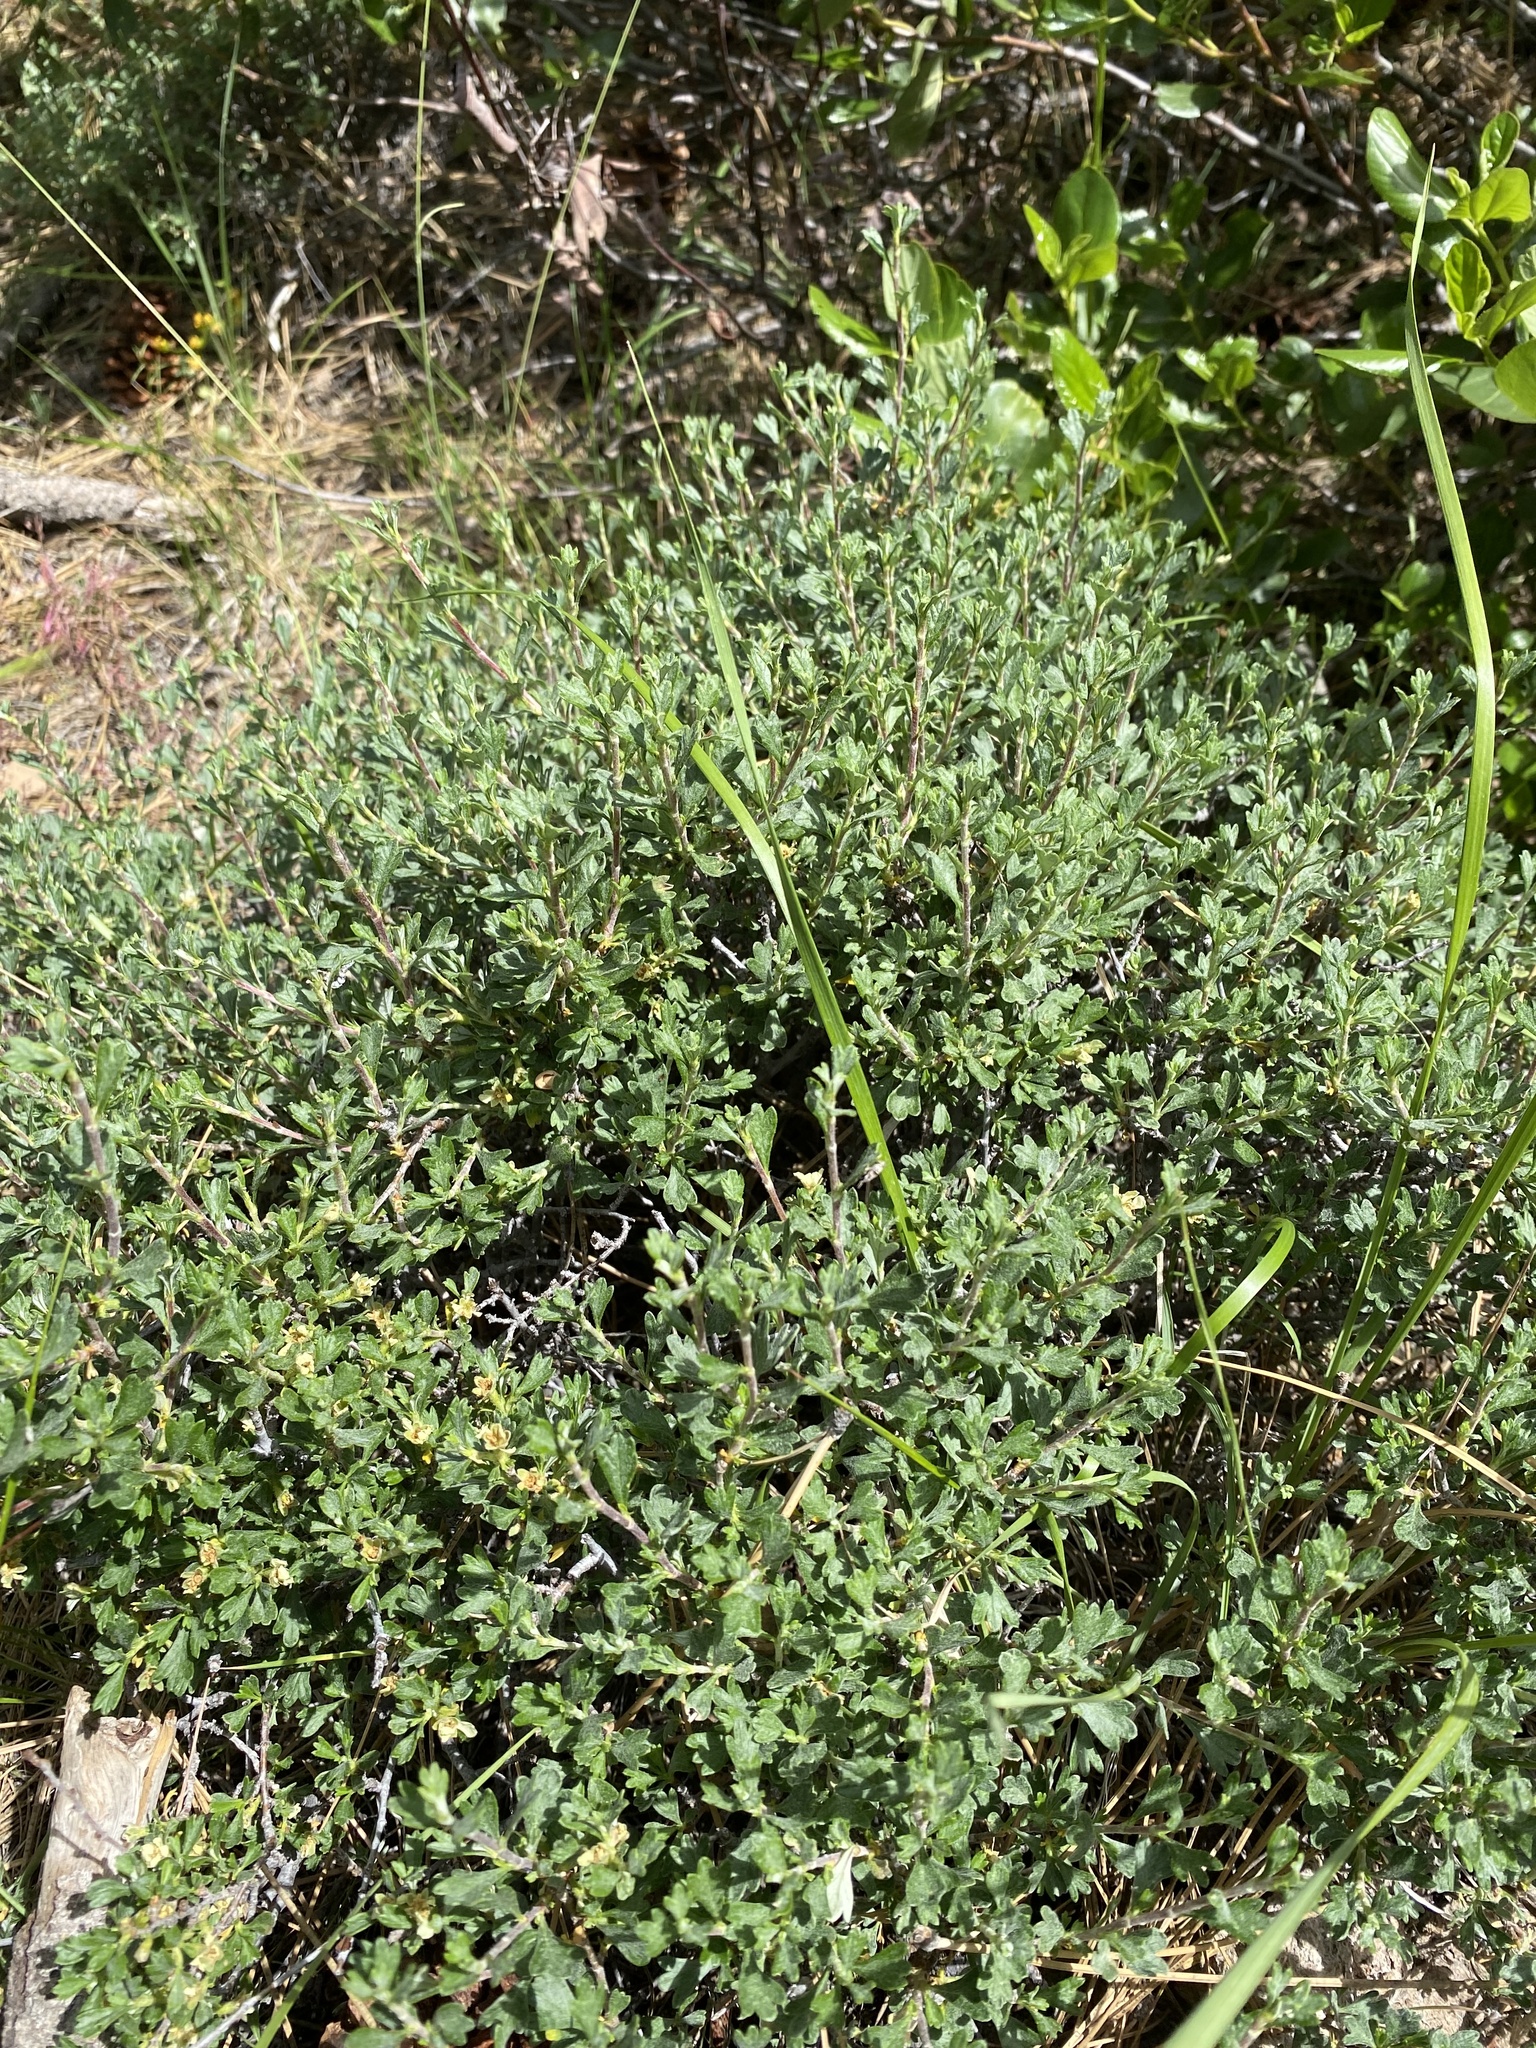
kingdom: Plantae
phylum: Tracheophyta
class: Magnoliopsida
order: Rosales
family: Rosaceae
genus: Purshia
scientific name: Purshia tridentata
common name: Antelope bitterbrush
